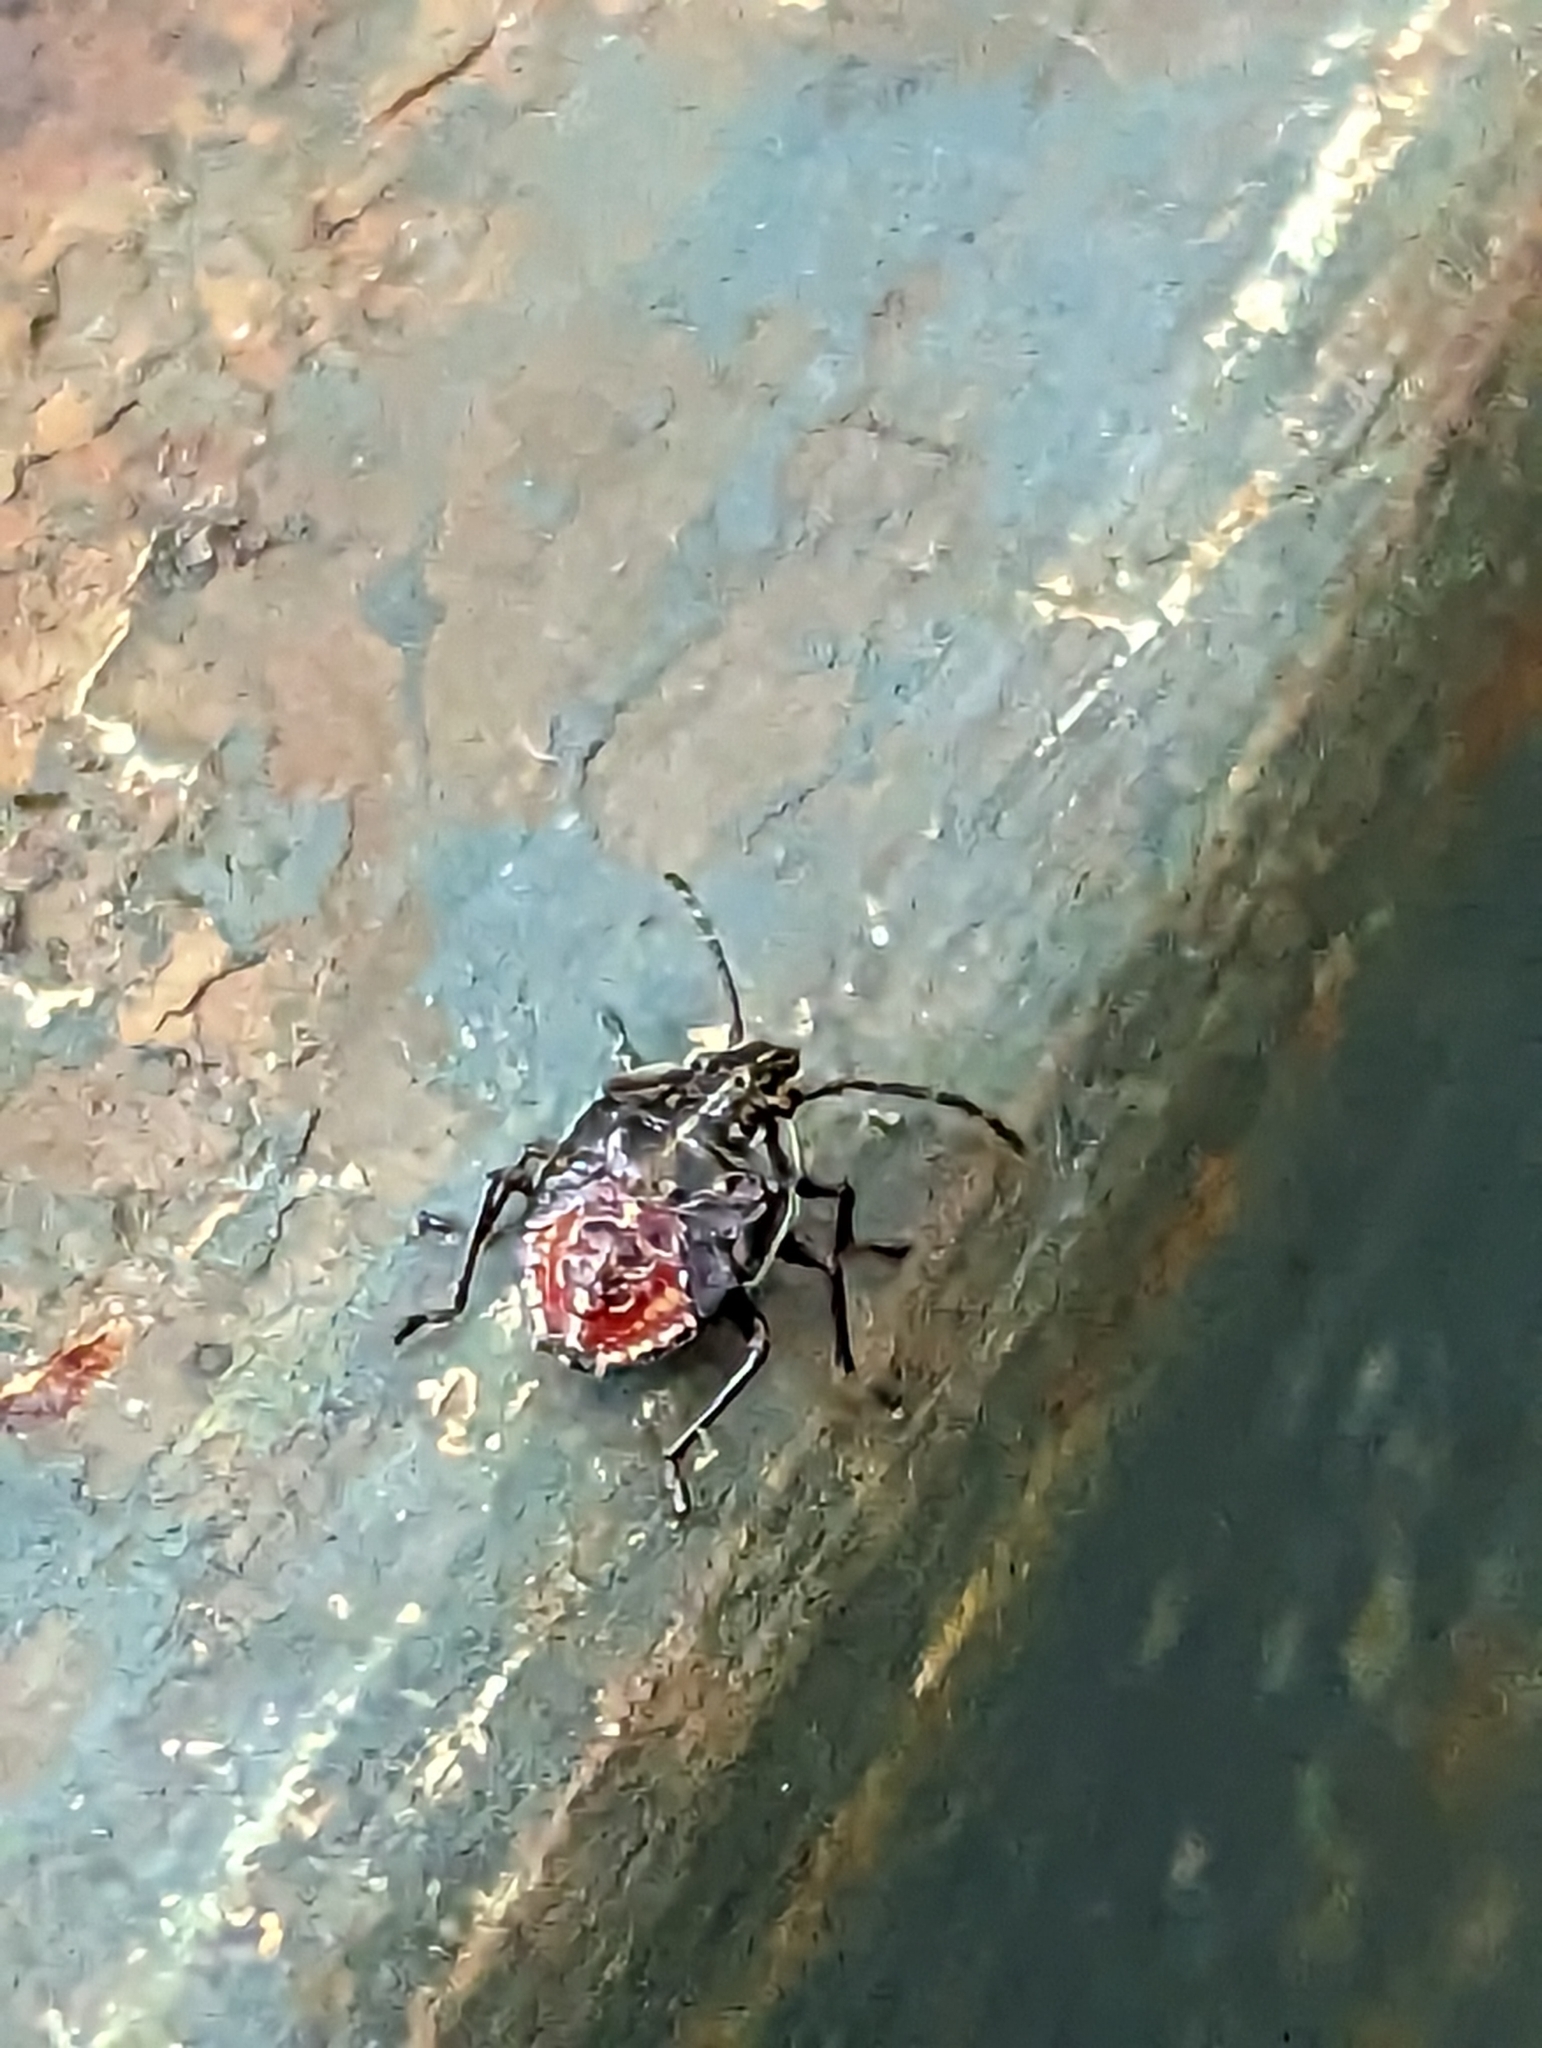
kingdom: Animalia
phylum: Arthropoda
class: Insecta
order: Hemiptera
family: Acanthosomatidae
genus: Elasmucha
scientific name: Elasmucha lateralis
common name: Shield bug
